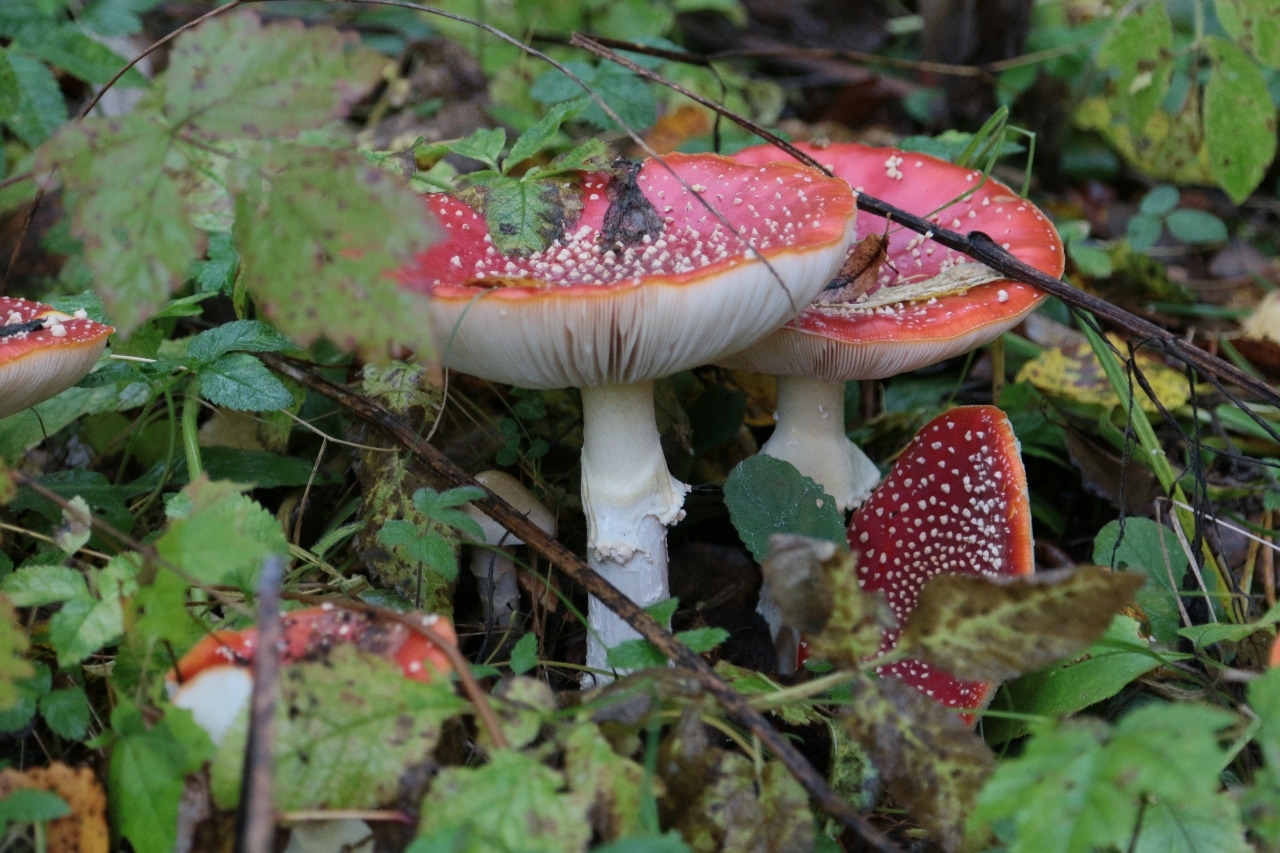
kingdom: Fungi
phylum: Basidiomycota
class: Agaricomycetes
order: Agaricales
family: Amanitaceae
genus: Amanita
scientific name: Amanita muscaria
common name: Fly agaric
